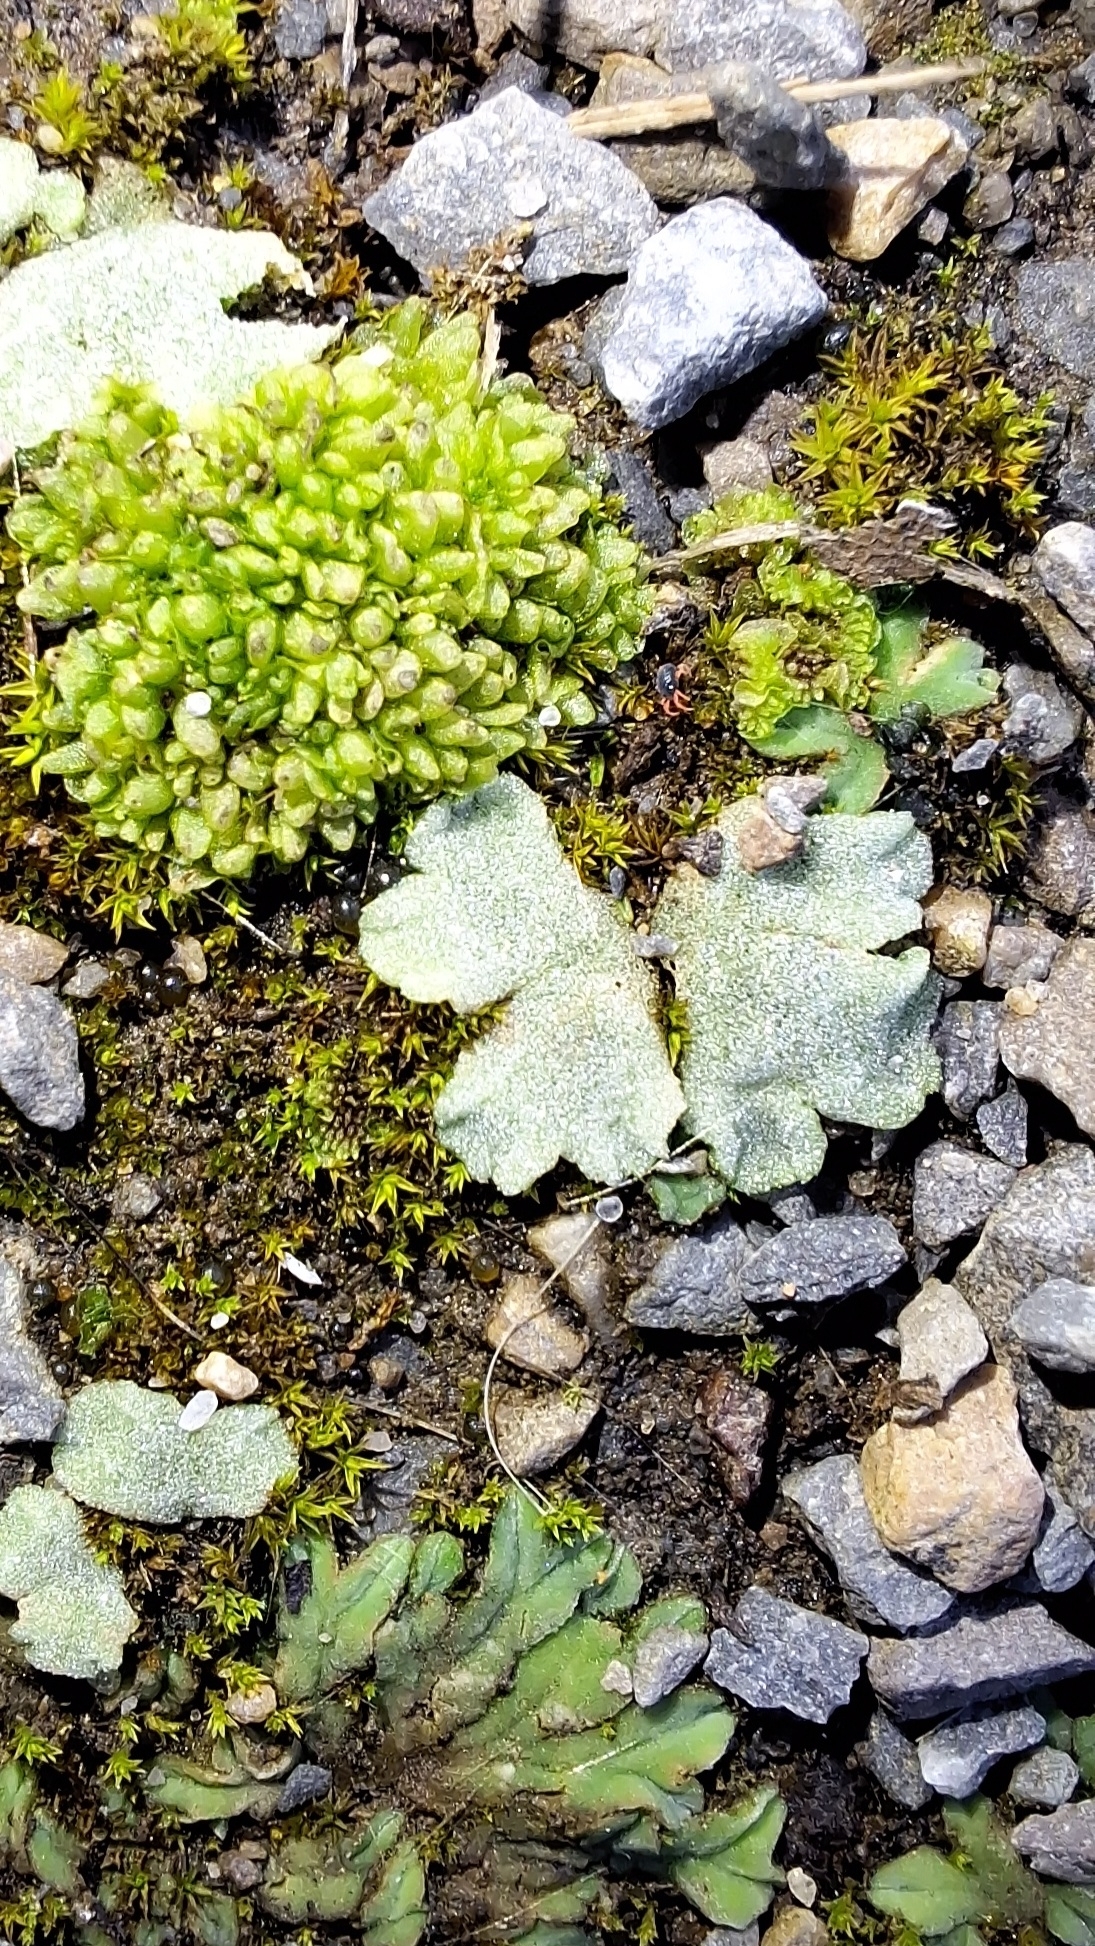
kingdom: Plantae
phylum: Marchantiophyta
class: Marchantiopsida
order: Marchantiales
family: Ricciaceae
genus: Riccia
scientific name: Riccia crystallina
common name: Blue crystalwort
